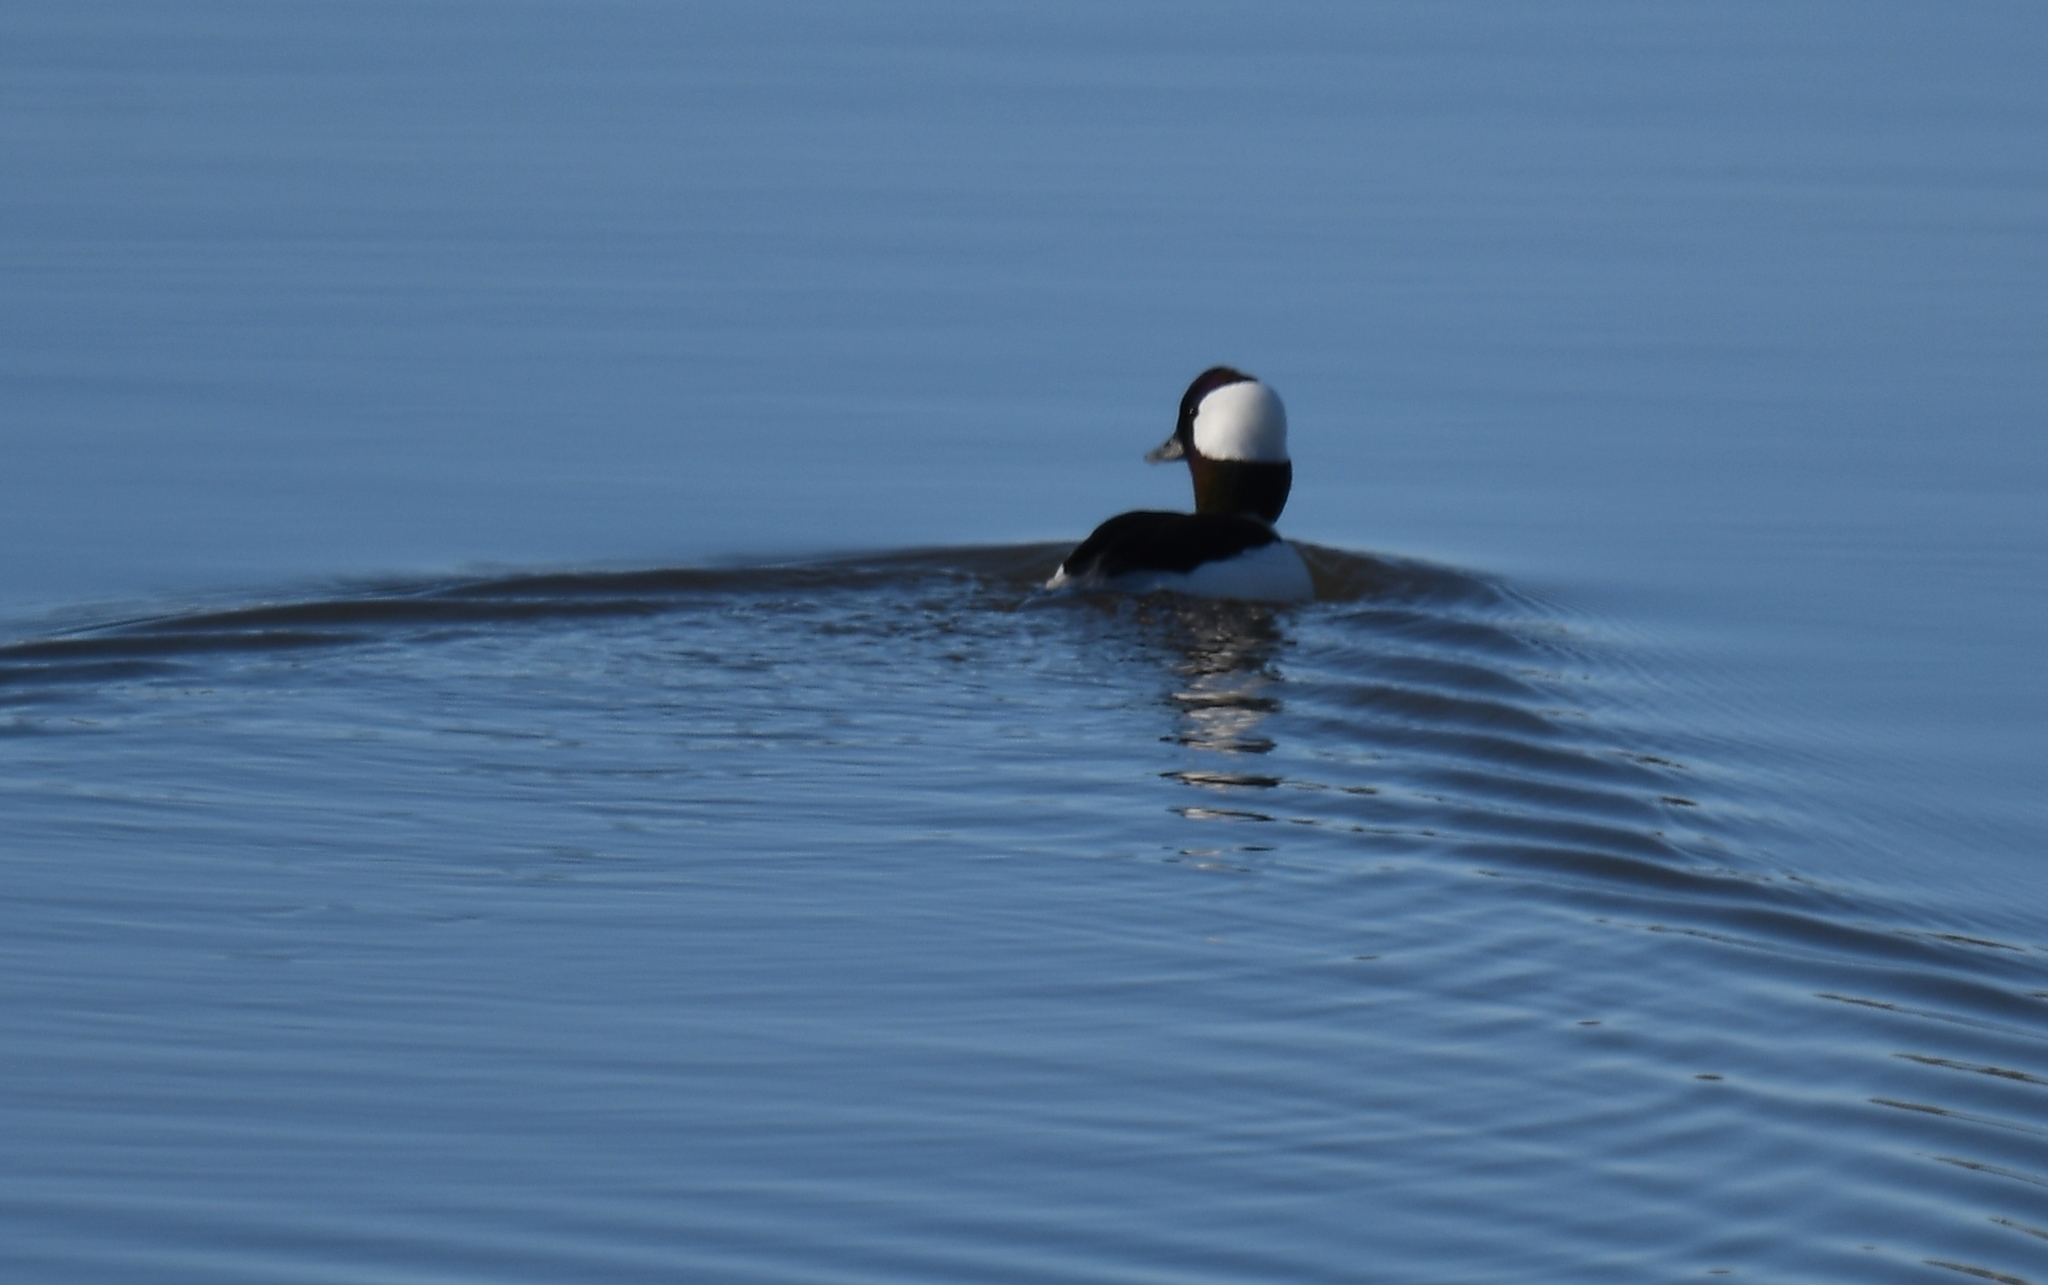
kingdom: Animalia
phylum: Chordata
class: Aves
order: Anseriformes
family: Anatidae
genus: Bucephala
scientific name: Bucephala albeola
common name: Bufflehead
